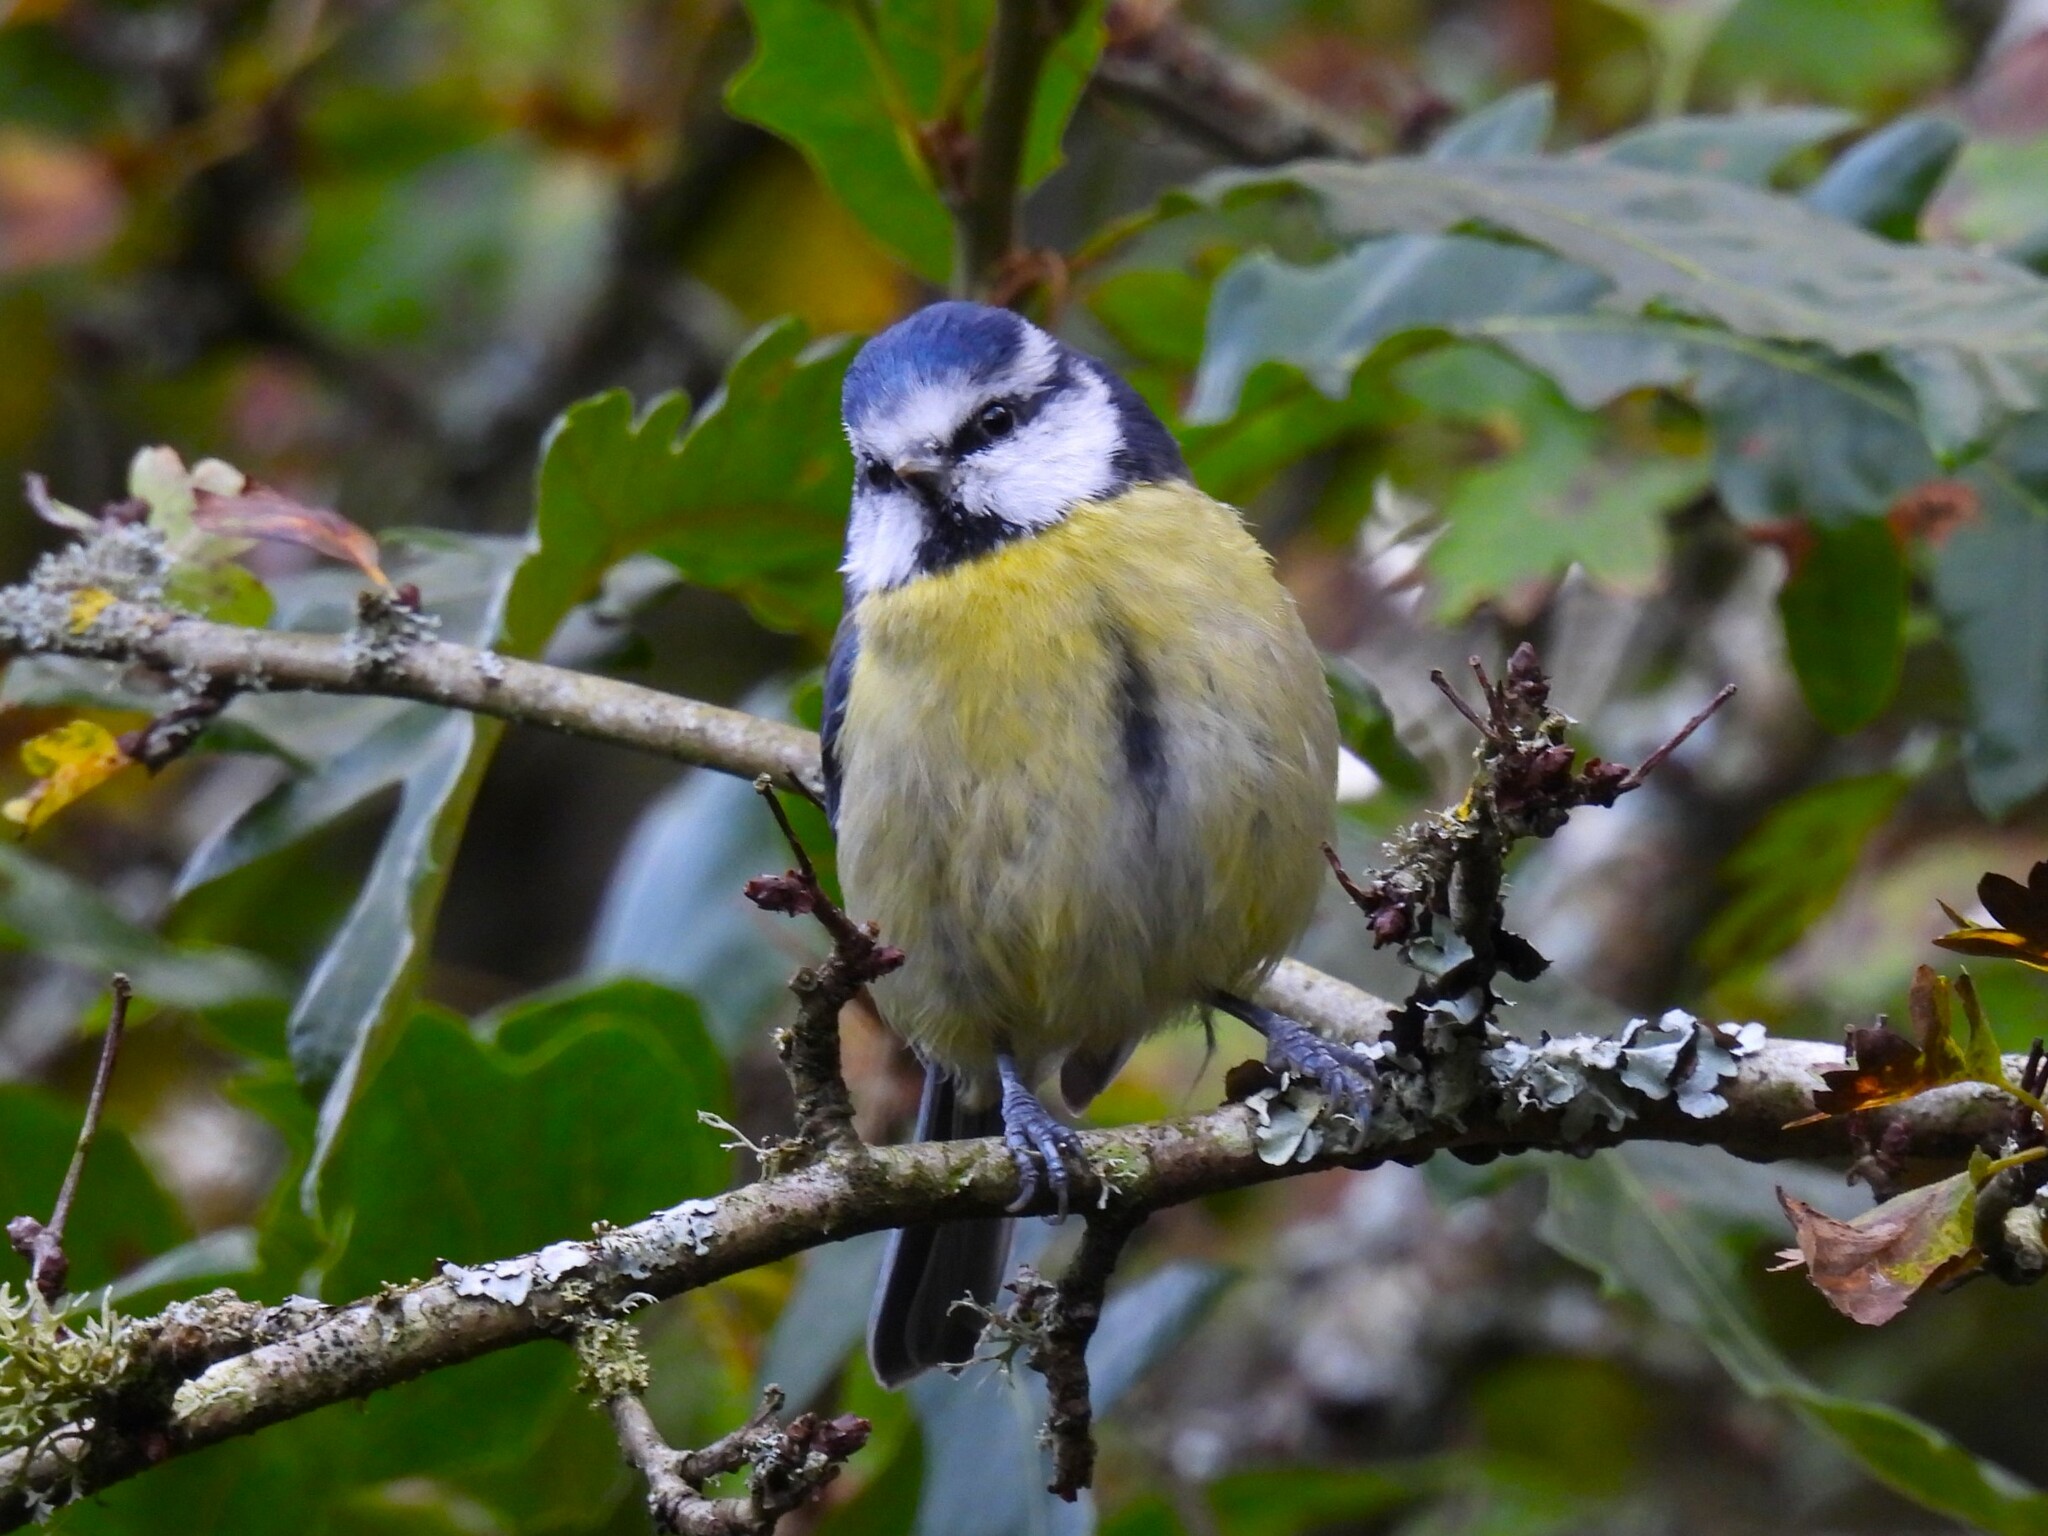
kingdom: Animalia
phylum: Chordata
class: Aves
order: Passeriformes
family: Paridae
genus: Cyanistes
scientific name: Cyanistes caeruleus
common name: Eurasian blue tit
